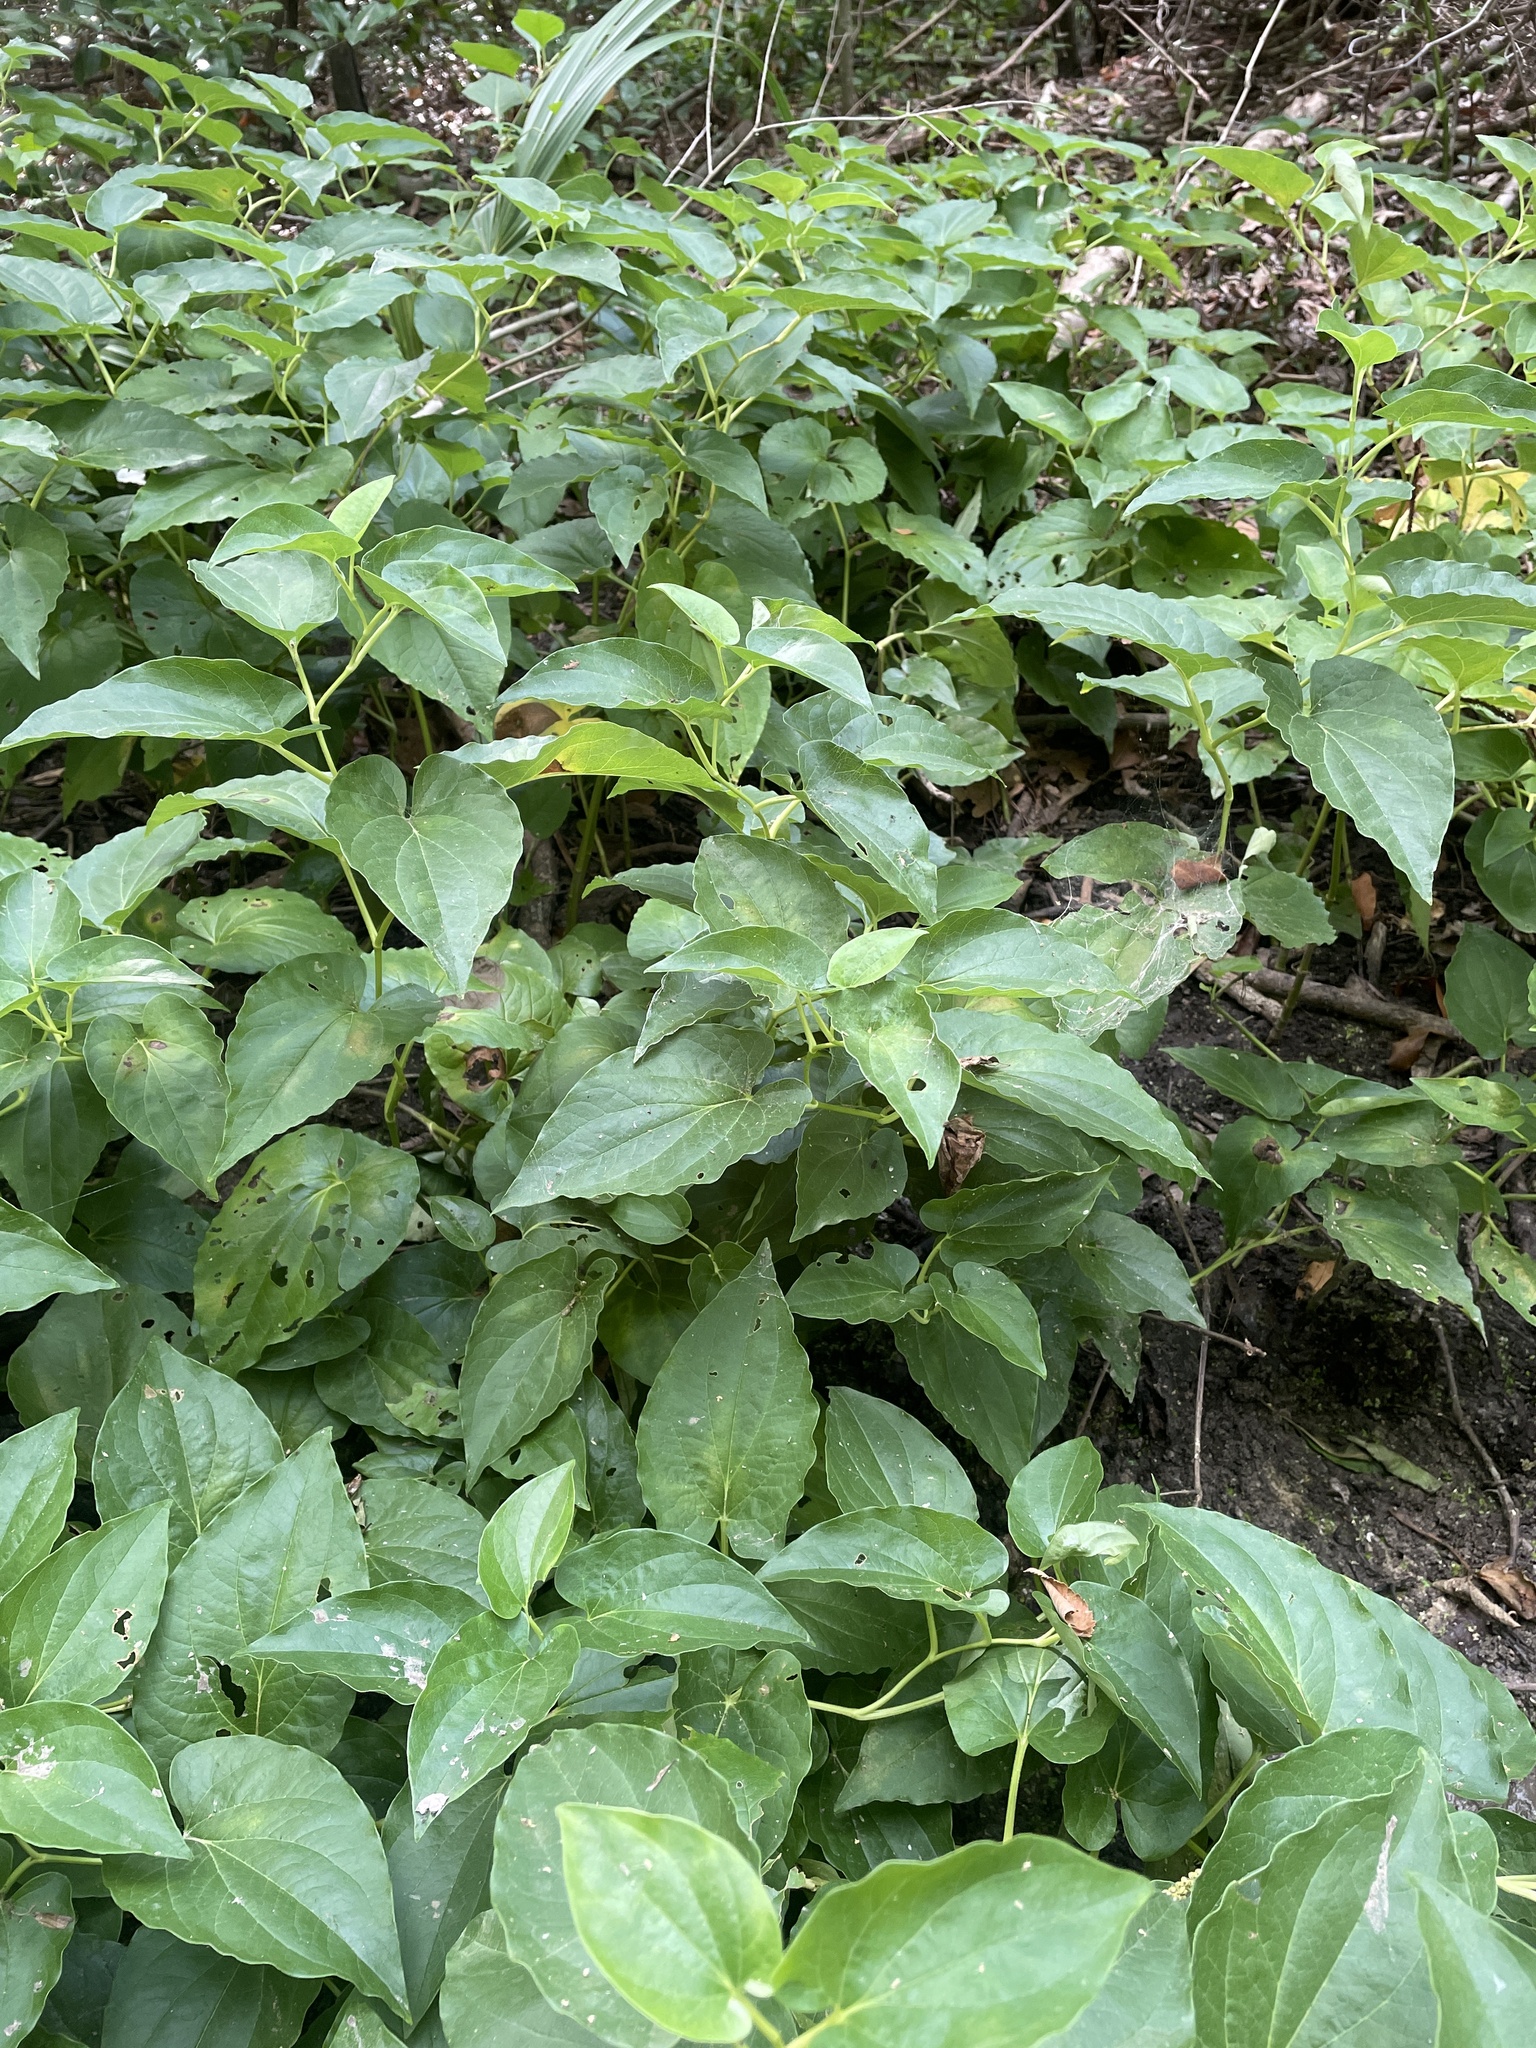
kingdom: Plantae
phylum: Tracheophyta
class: Magnoliopsida
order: Piperales
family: Saururaceae
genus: Saururus
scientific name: Saururus cernuus
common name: Lizard's-tail
